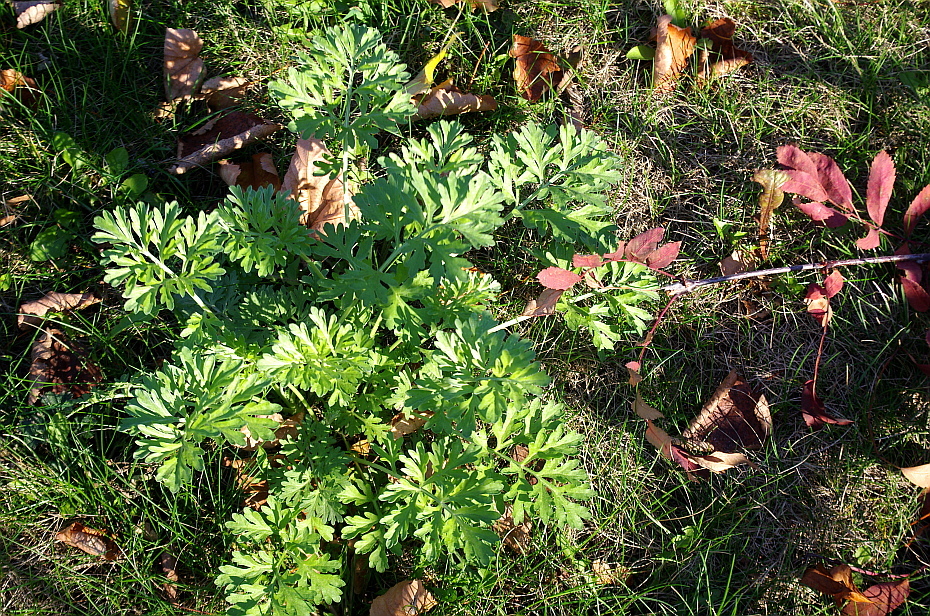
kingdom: Plantae
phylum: Tracheophyta
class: Magnoliopsida
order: Asterales
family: Asteraceae
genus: Artemisia
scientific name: Artemisia absinthium
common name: Wormwood
